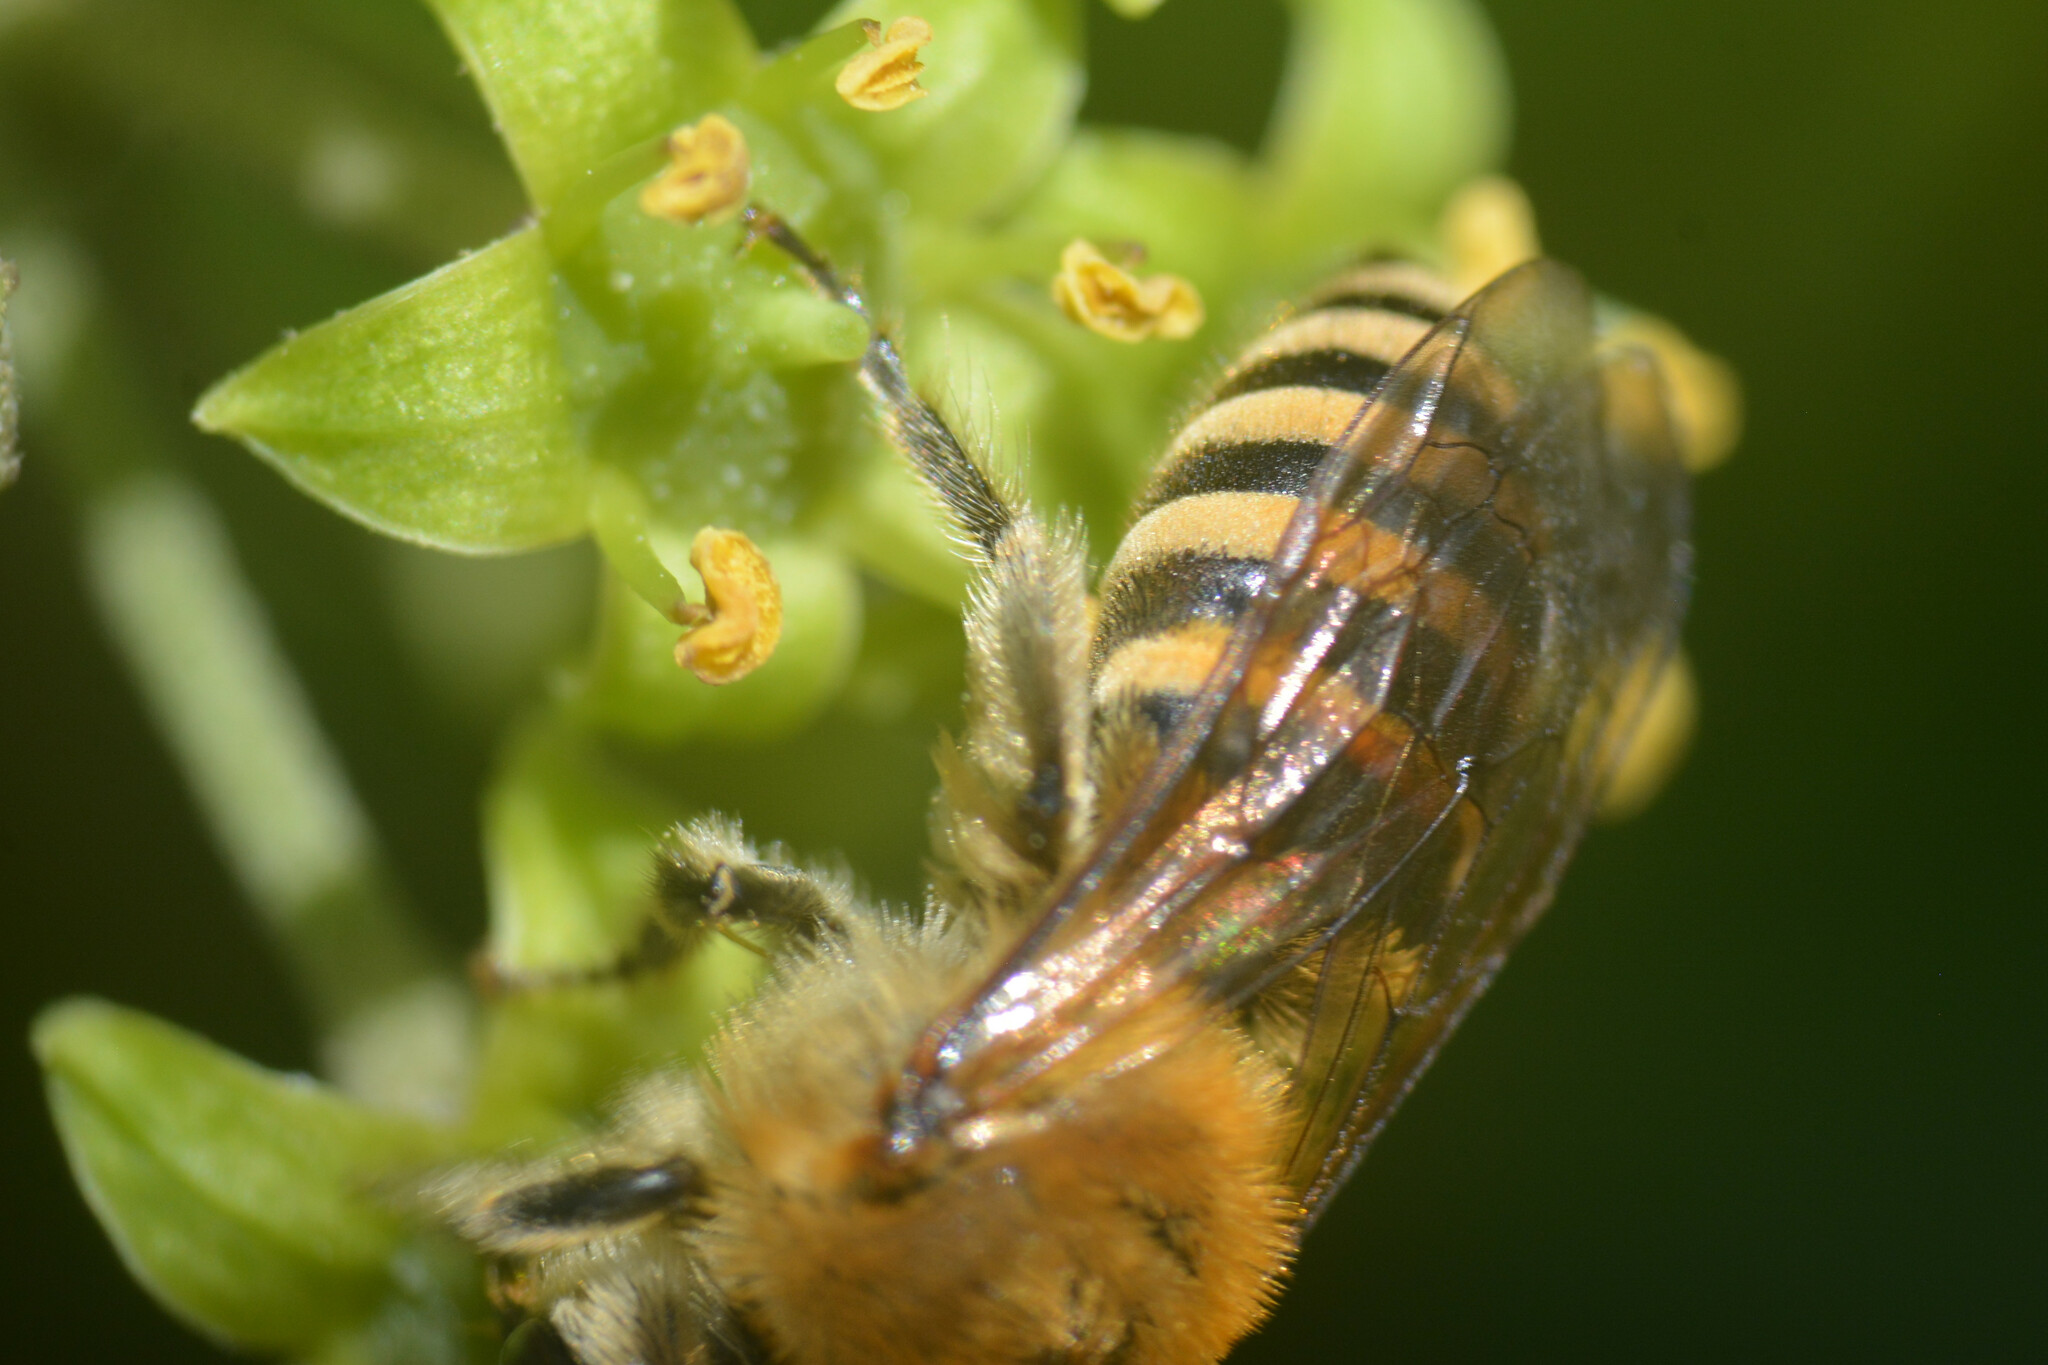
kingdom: Animalia
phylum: Arthropoda
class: Insecta
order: Hymenoptera
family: Colletidae
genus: Colletes
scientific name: Colletes hederae
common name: Ivy bee
